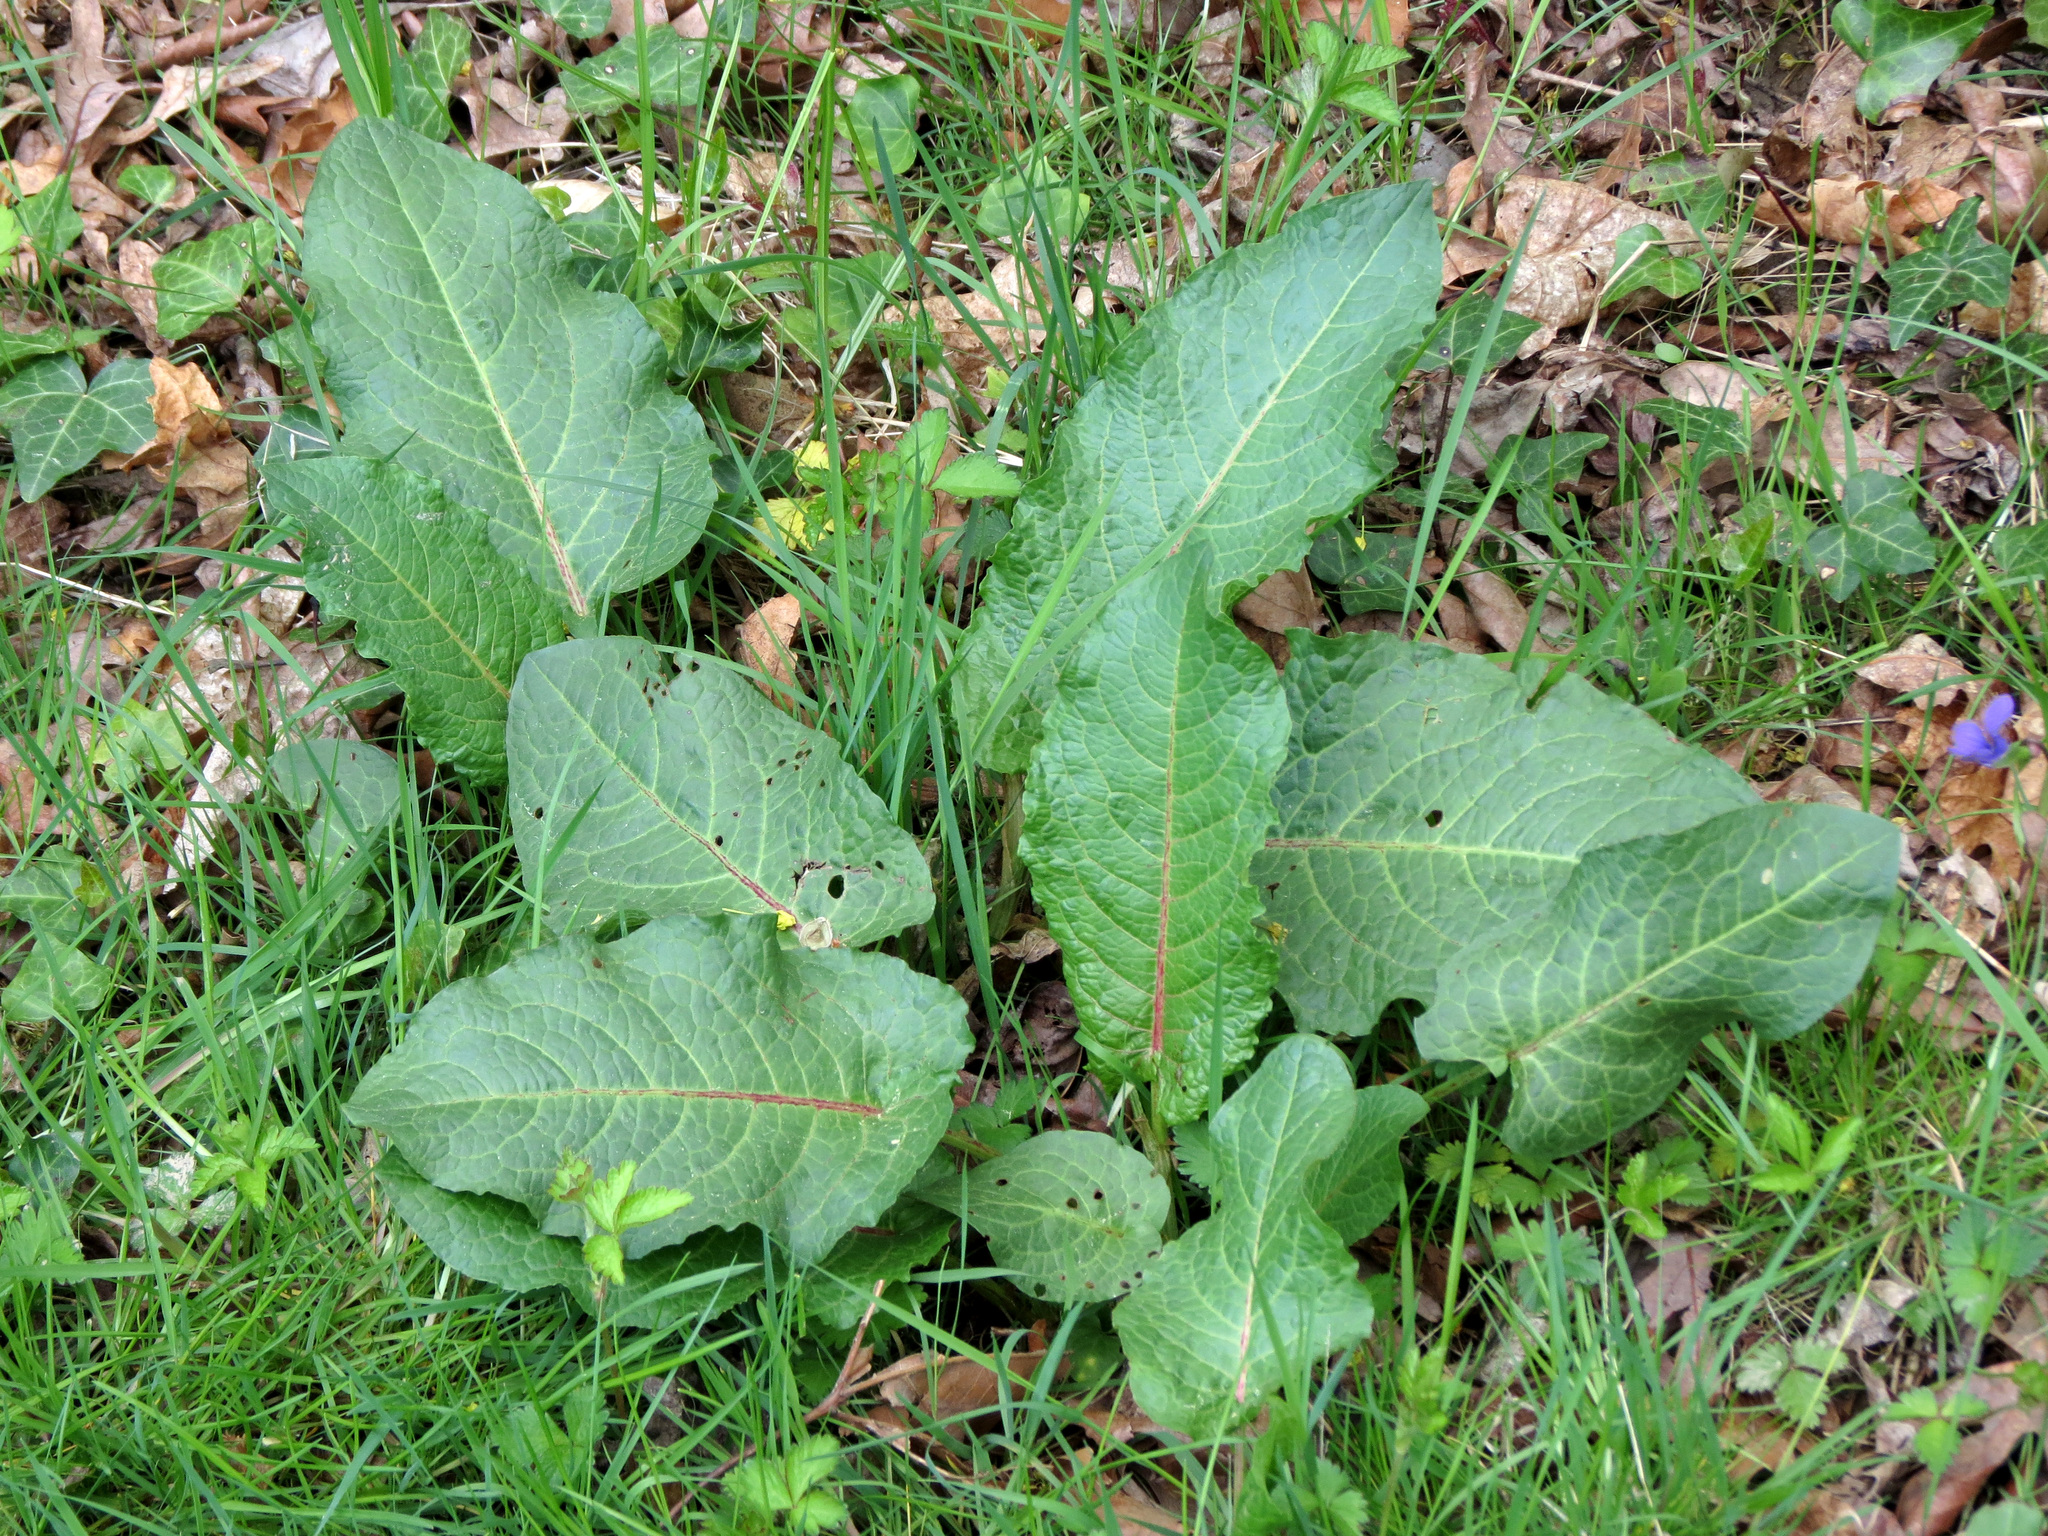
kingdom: Plantae
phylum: Tracheophyta
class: Magnoliopsida
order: Caryophyllales
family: Polygonaceae
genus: Rumex
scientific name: Rumex obtusifolius
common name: Bitter dock
